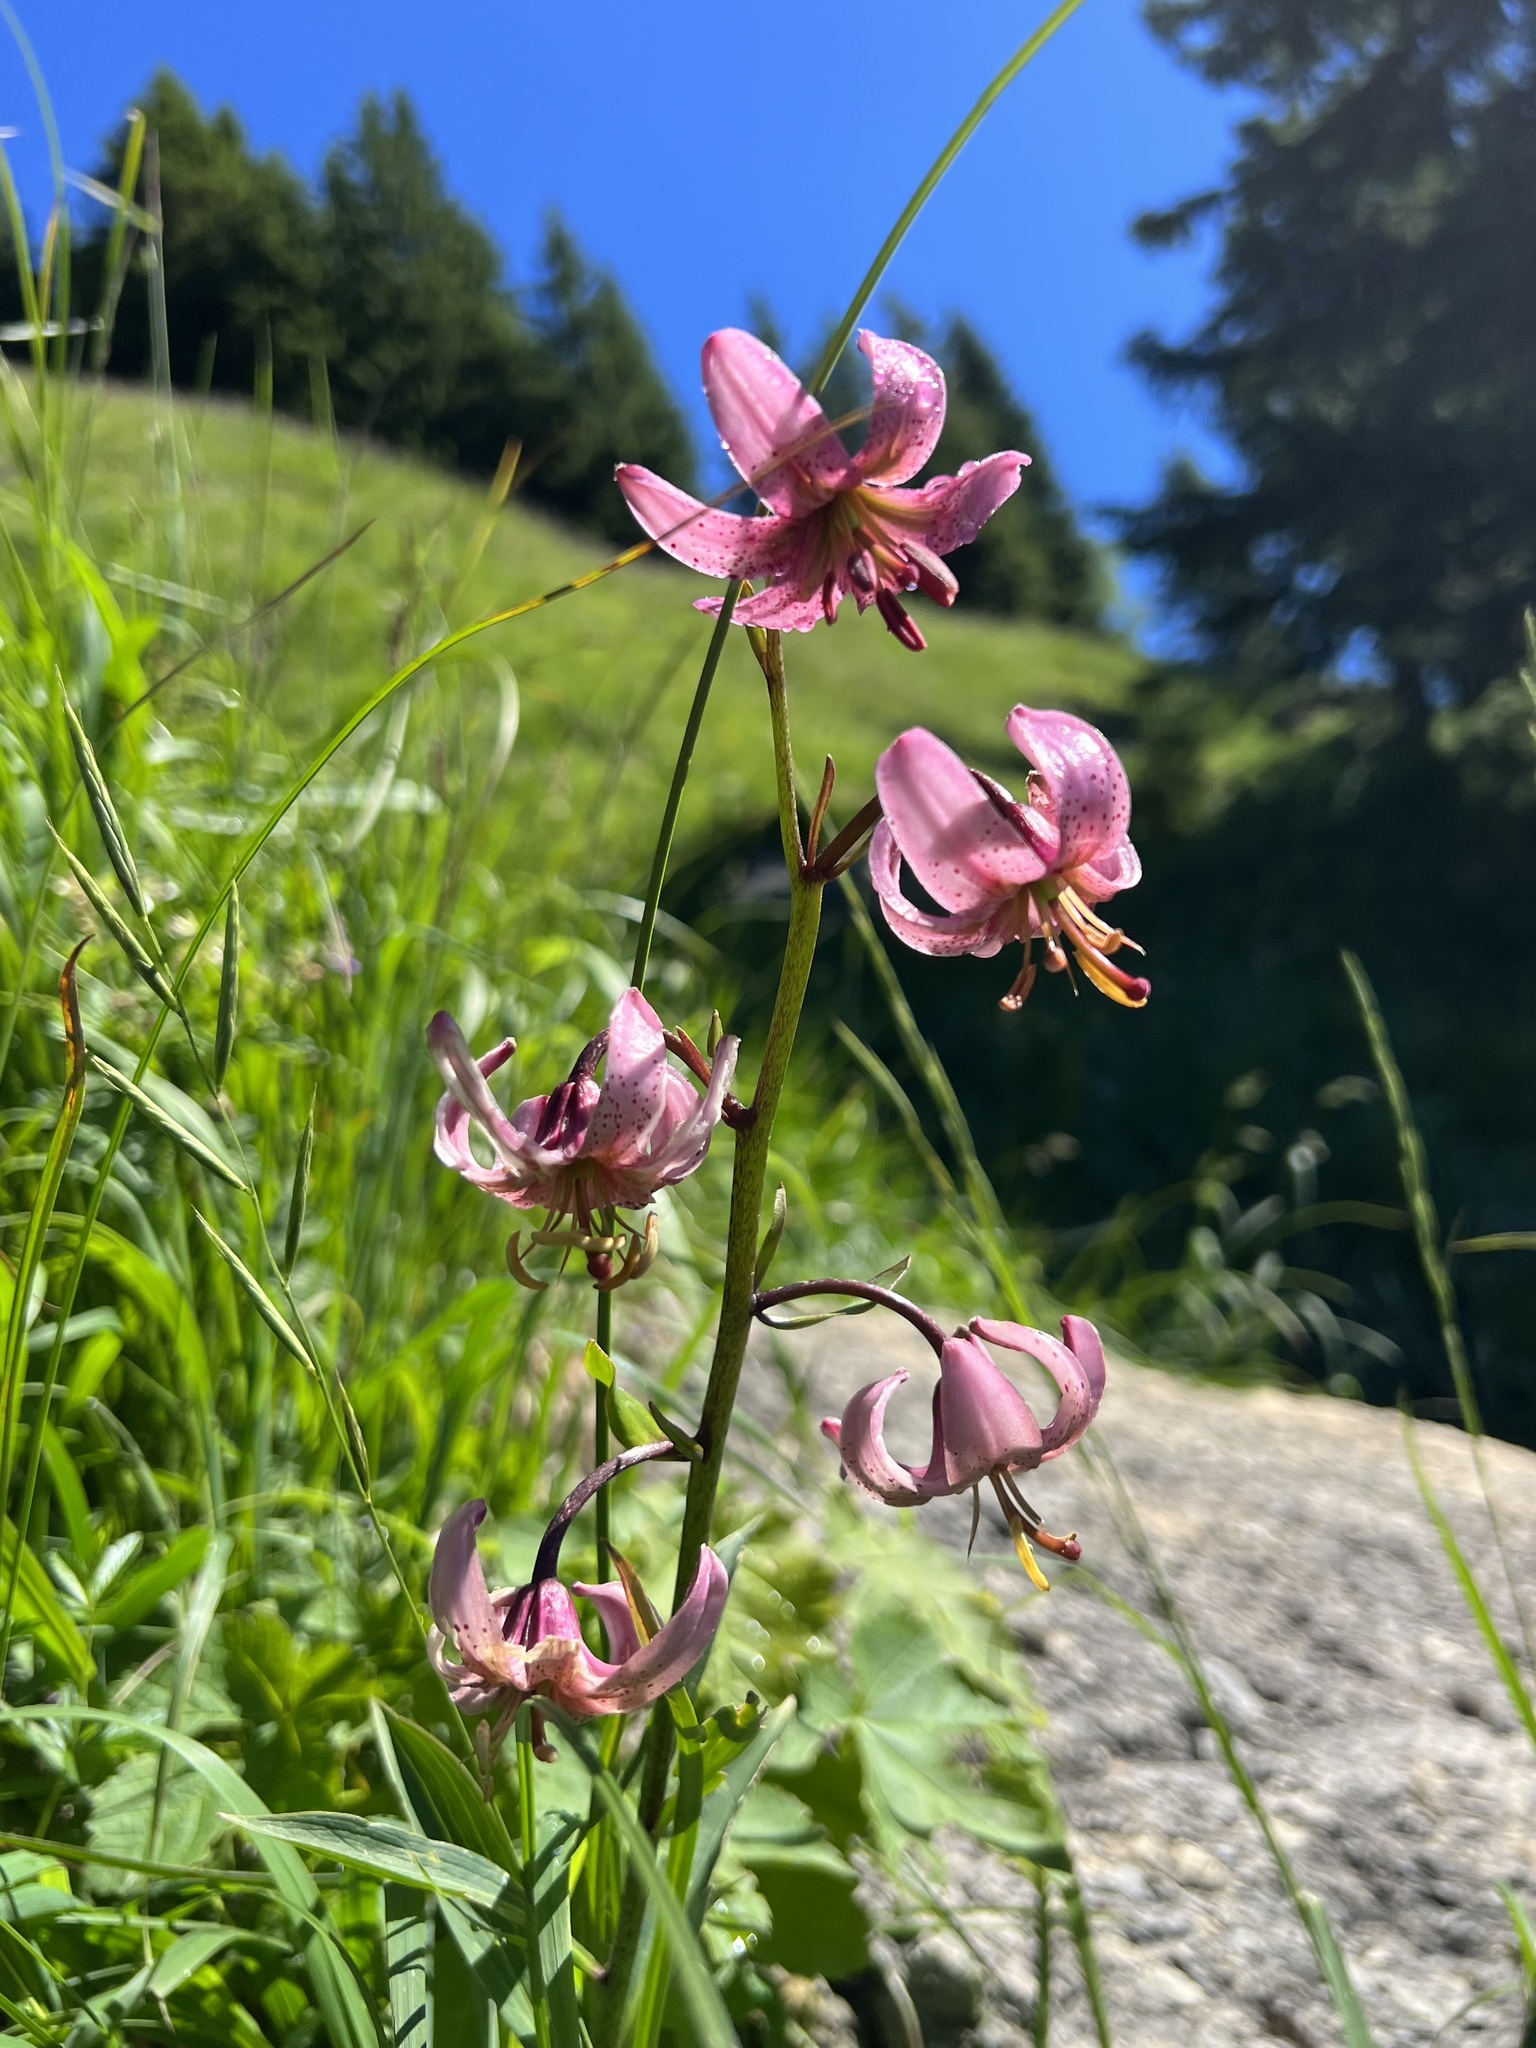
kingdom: Plantae
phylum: Tracheophyta
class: Liliopsida
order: Liliales
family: Liliaceae
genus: Lilium
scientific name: Lilium martagon
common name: Martagon lily
